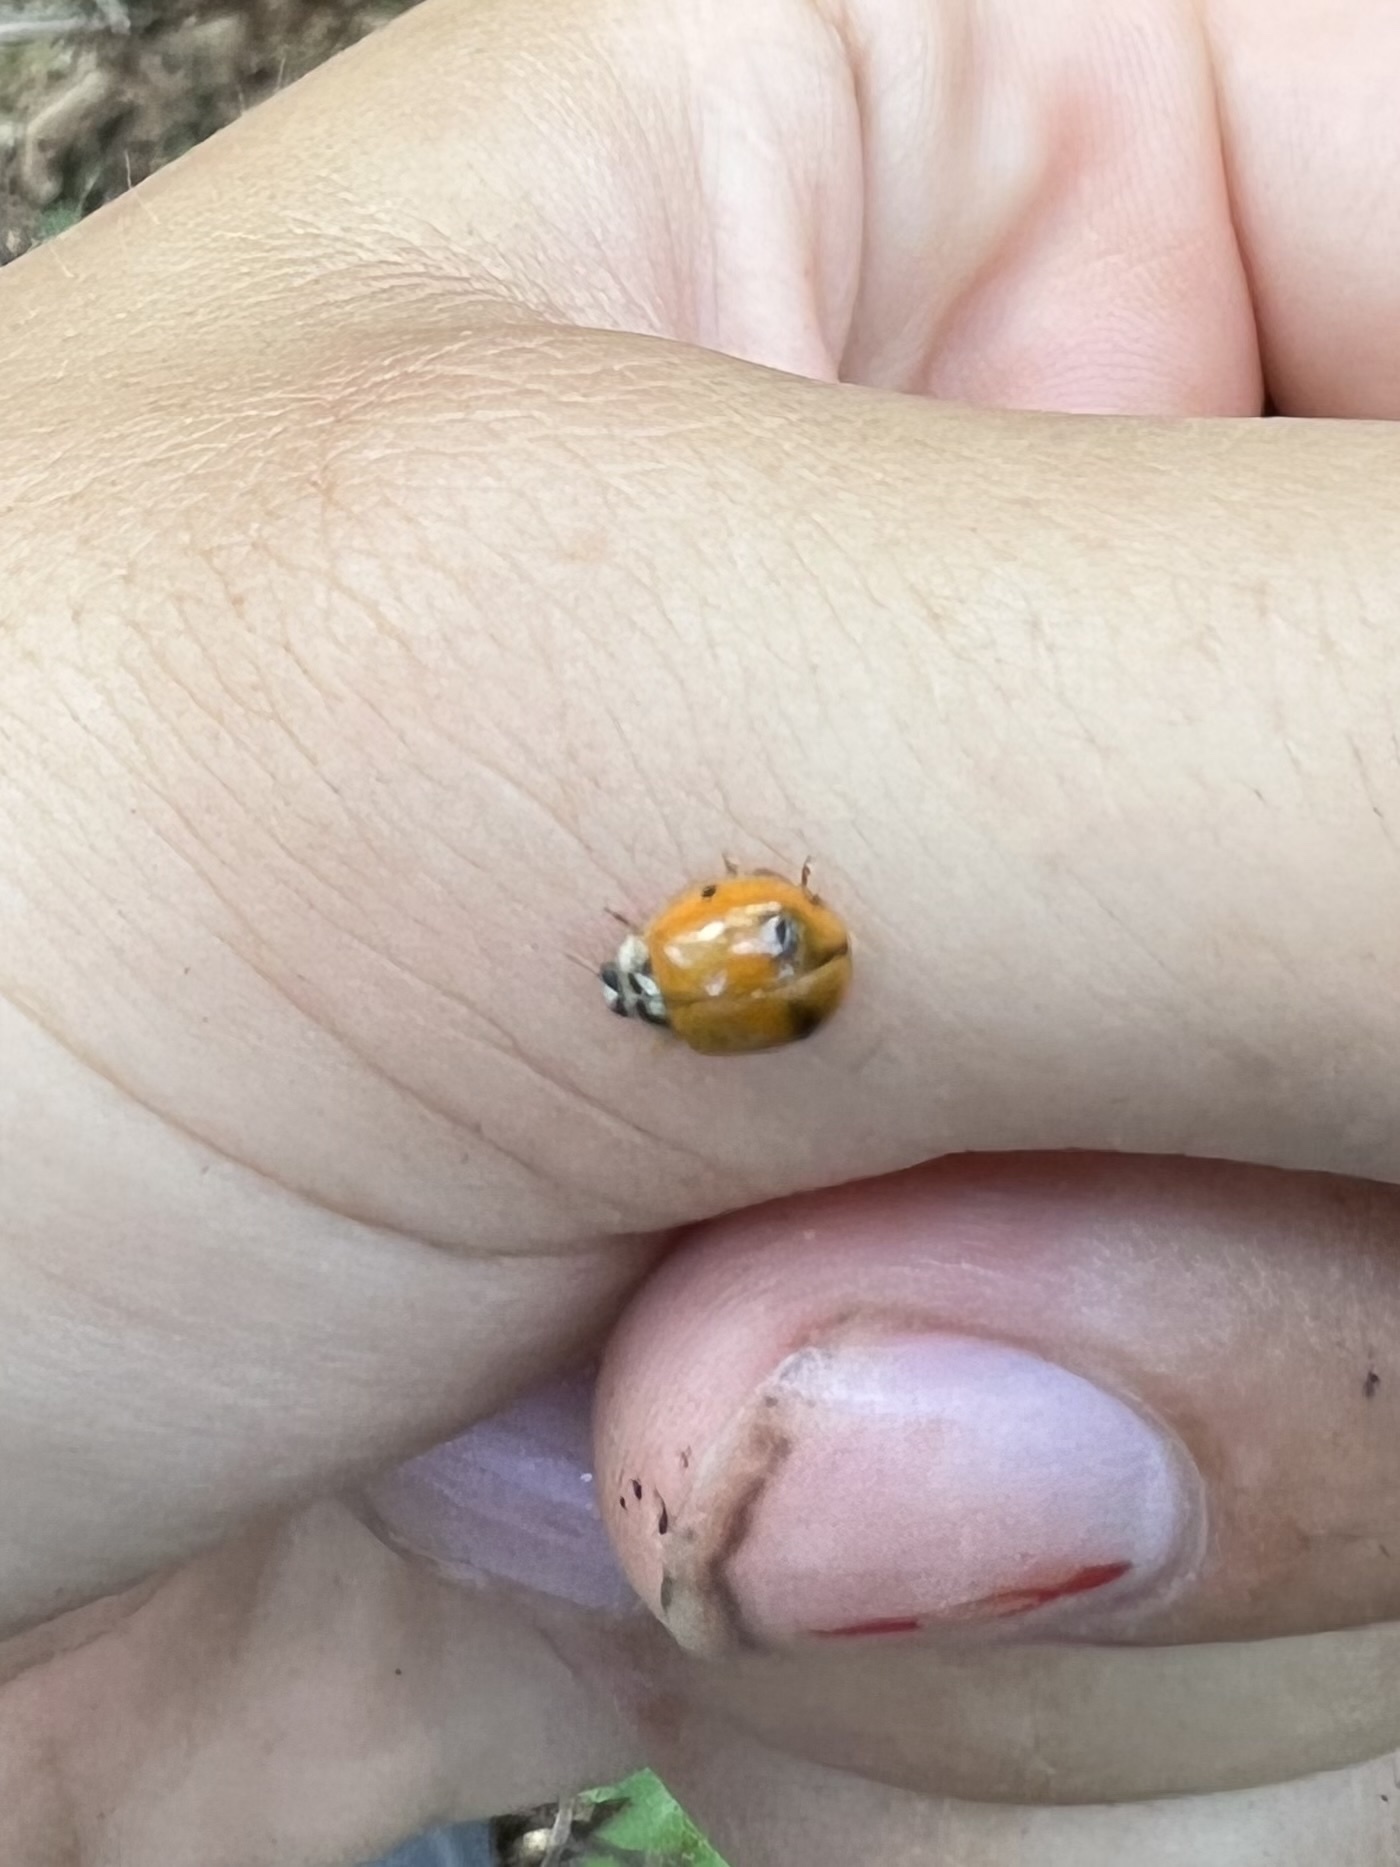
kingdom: Animalia
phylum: Arthropoda
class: Insecta
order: Coleoptera
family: Coccinellidae
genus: Harmonia
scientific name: Harmonia axyridis
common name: Harlequin ladybird
